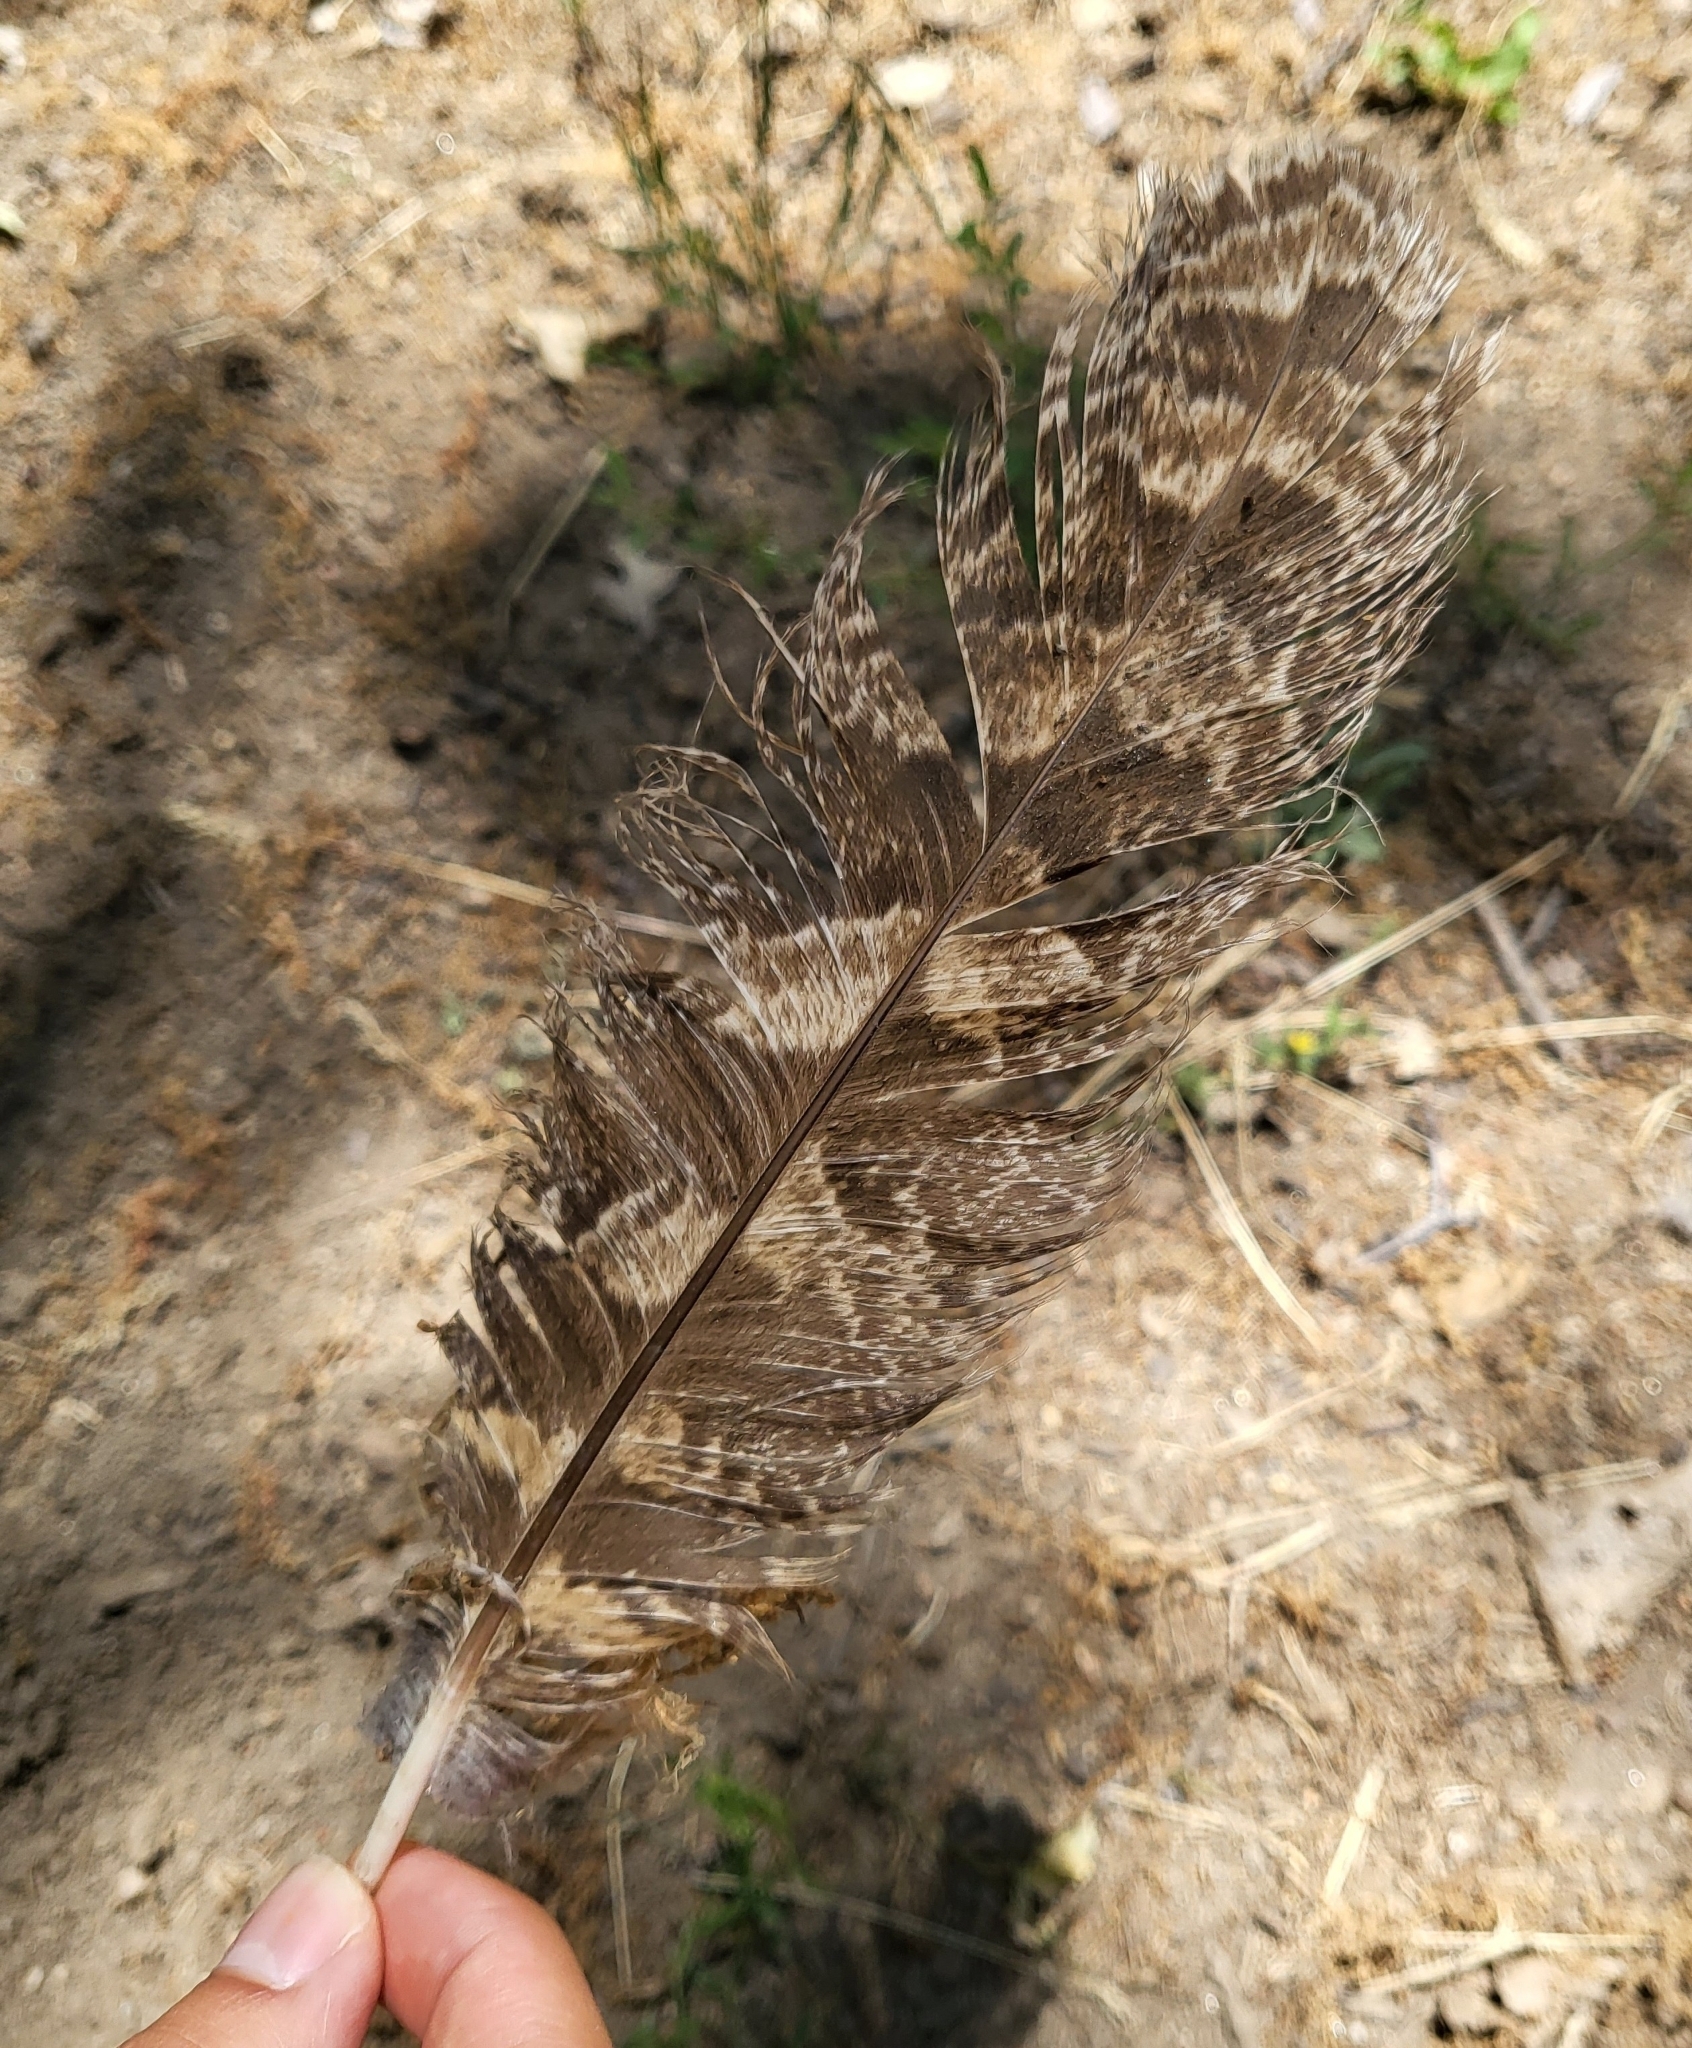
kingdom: Animalia
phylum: Chordata
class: Aves
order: Strigiformes
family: Strigidae
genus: Bubo
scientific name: Bubo virginianus
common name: Great horned owl
